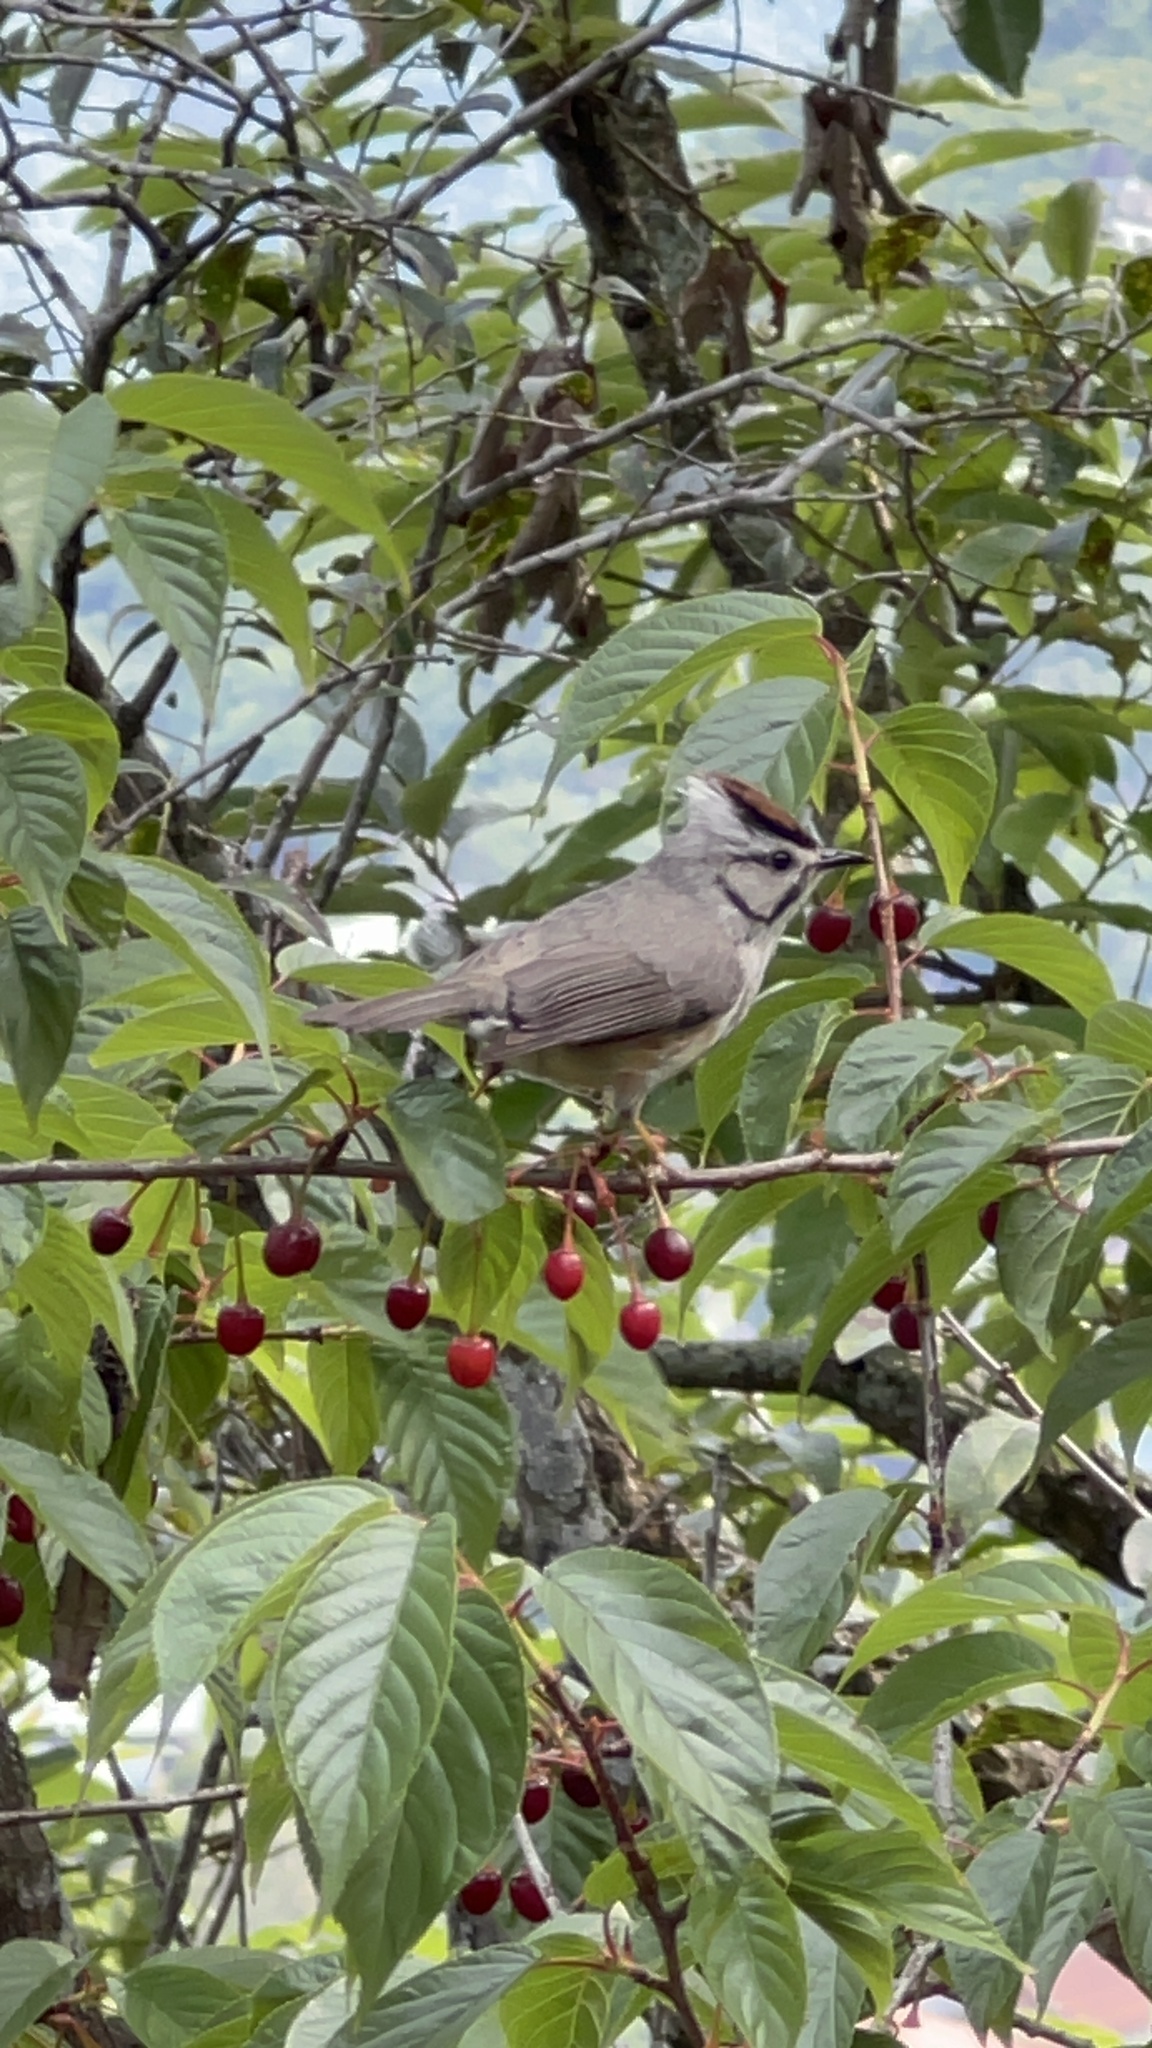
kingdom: Animalia
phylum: Chordata
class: Aves
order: Passeriformes
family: Zosteropidae
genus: Yuhina
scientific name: Yuhina brunneiceps
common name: Taiwan yuhina
